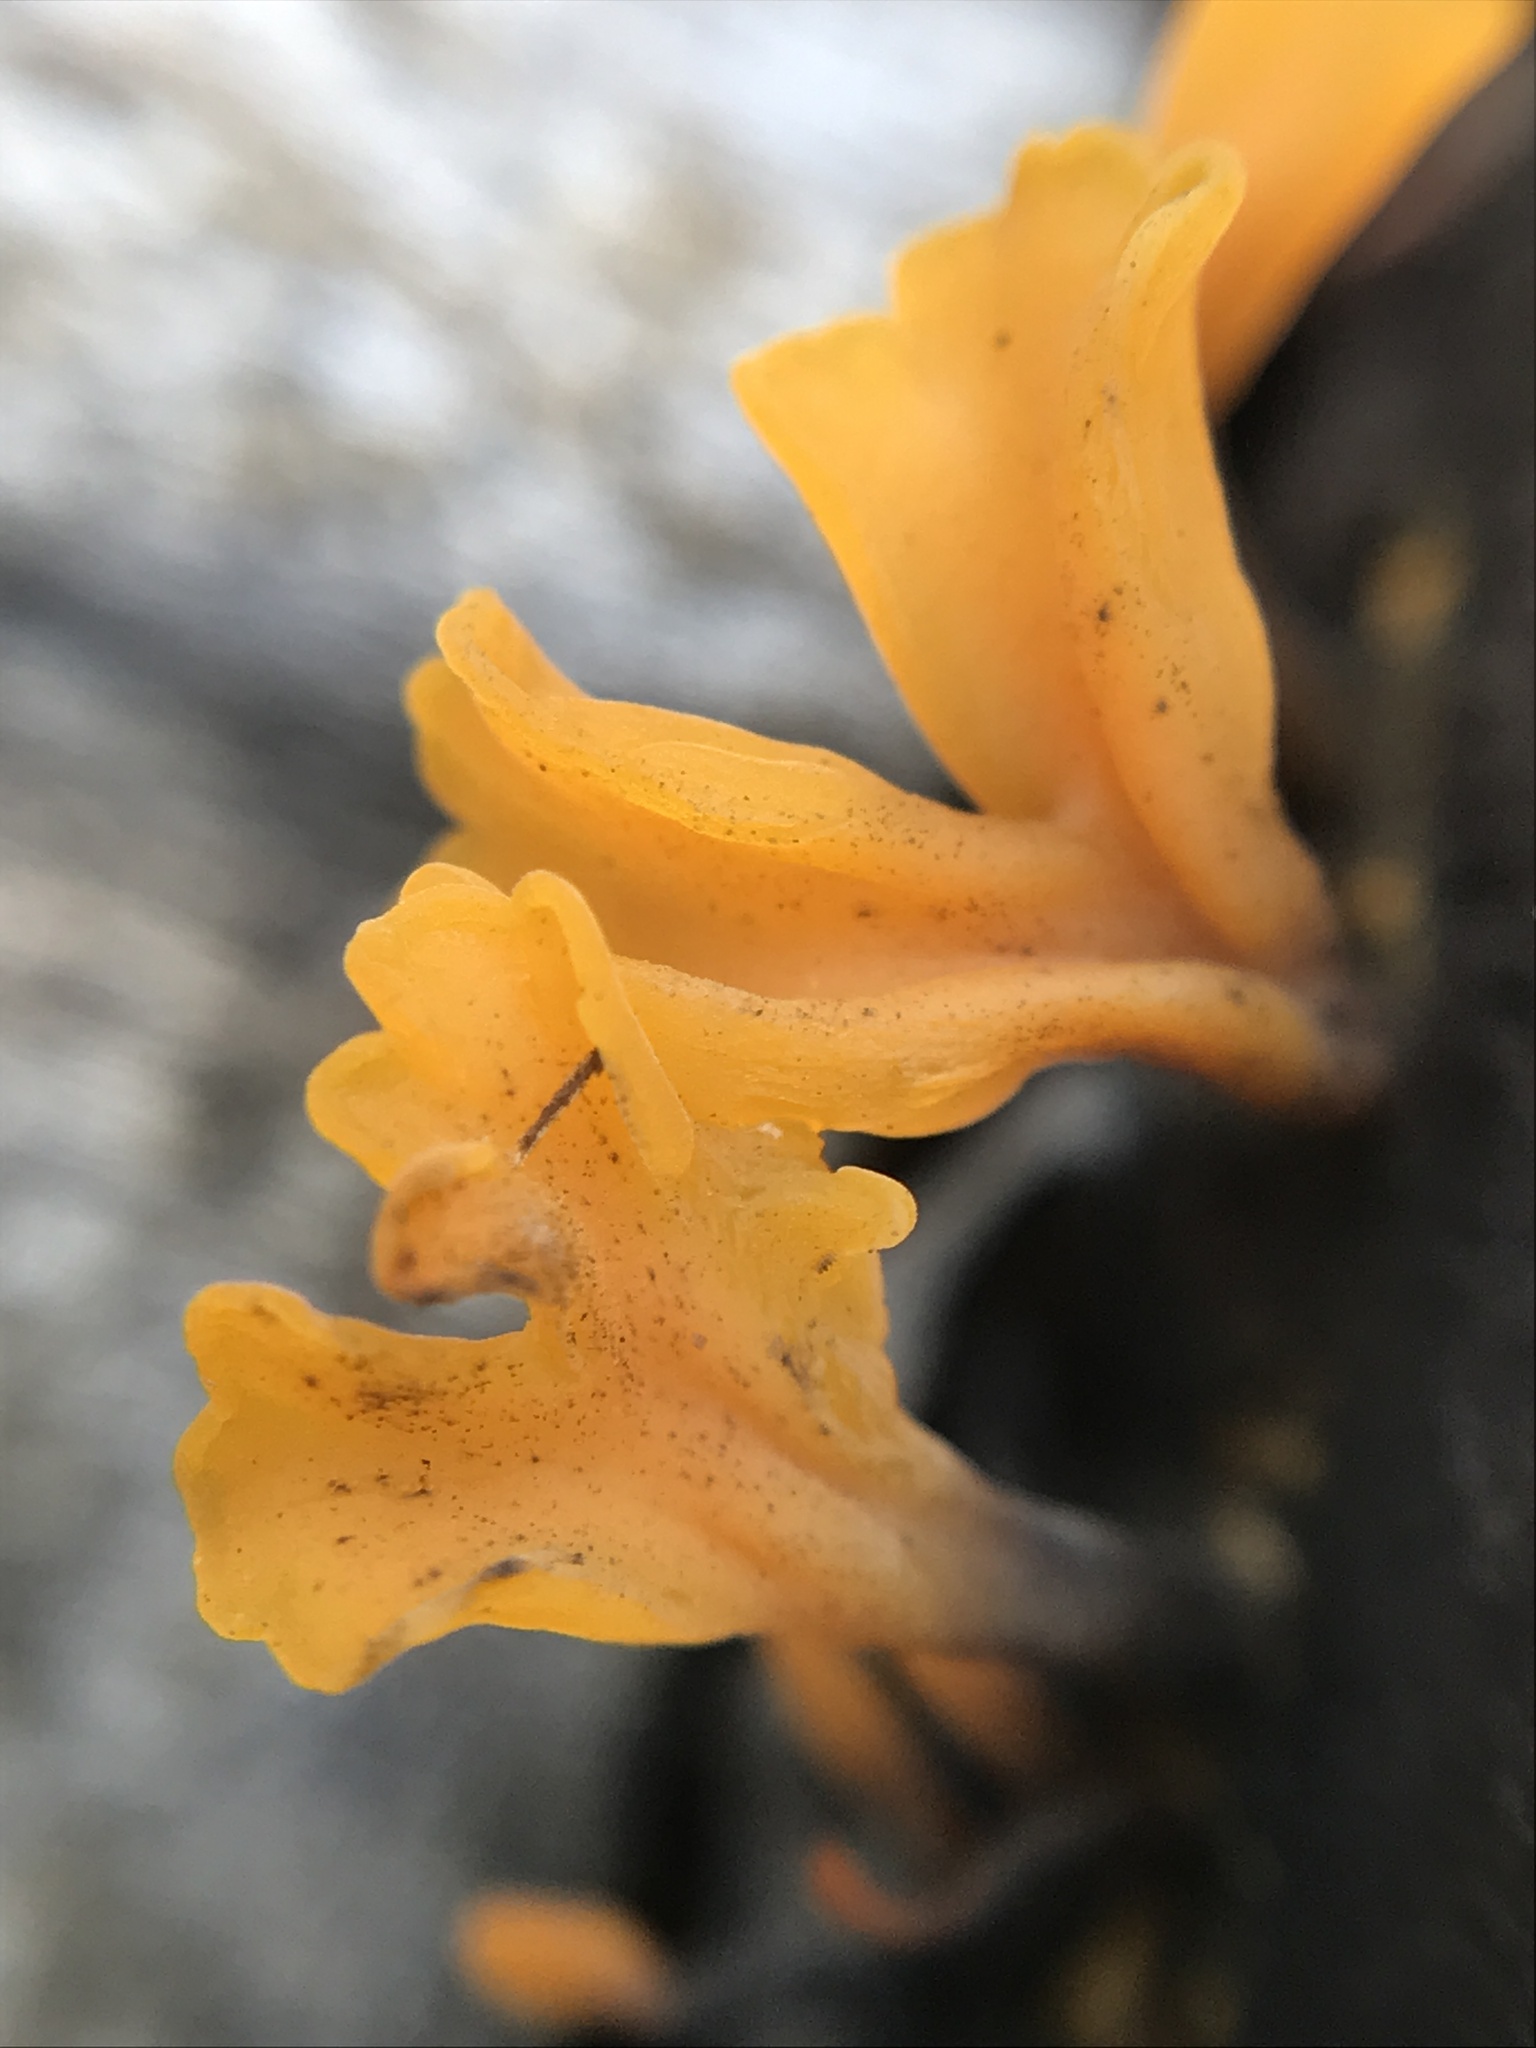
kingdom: Fungi
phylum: Basidiomycota
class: Dacrymycetes
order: Dacrymycetales
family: Dacrymycetaceae
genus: Dacrymyces
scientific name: Dacrymyces spathularius
